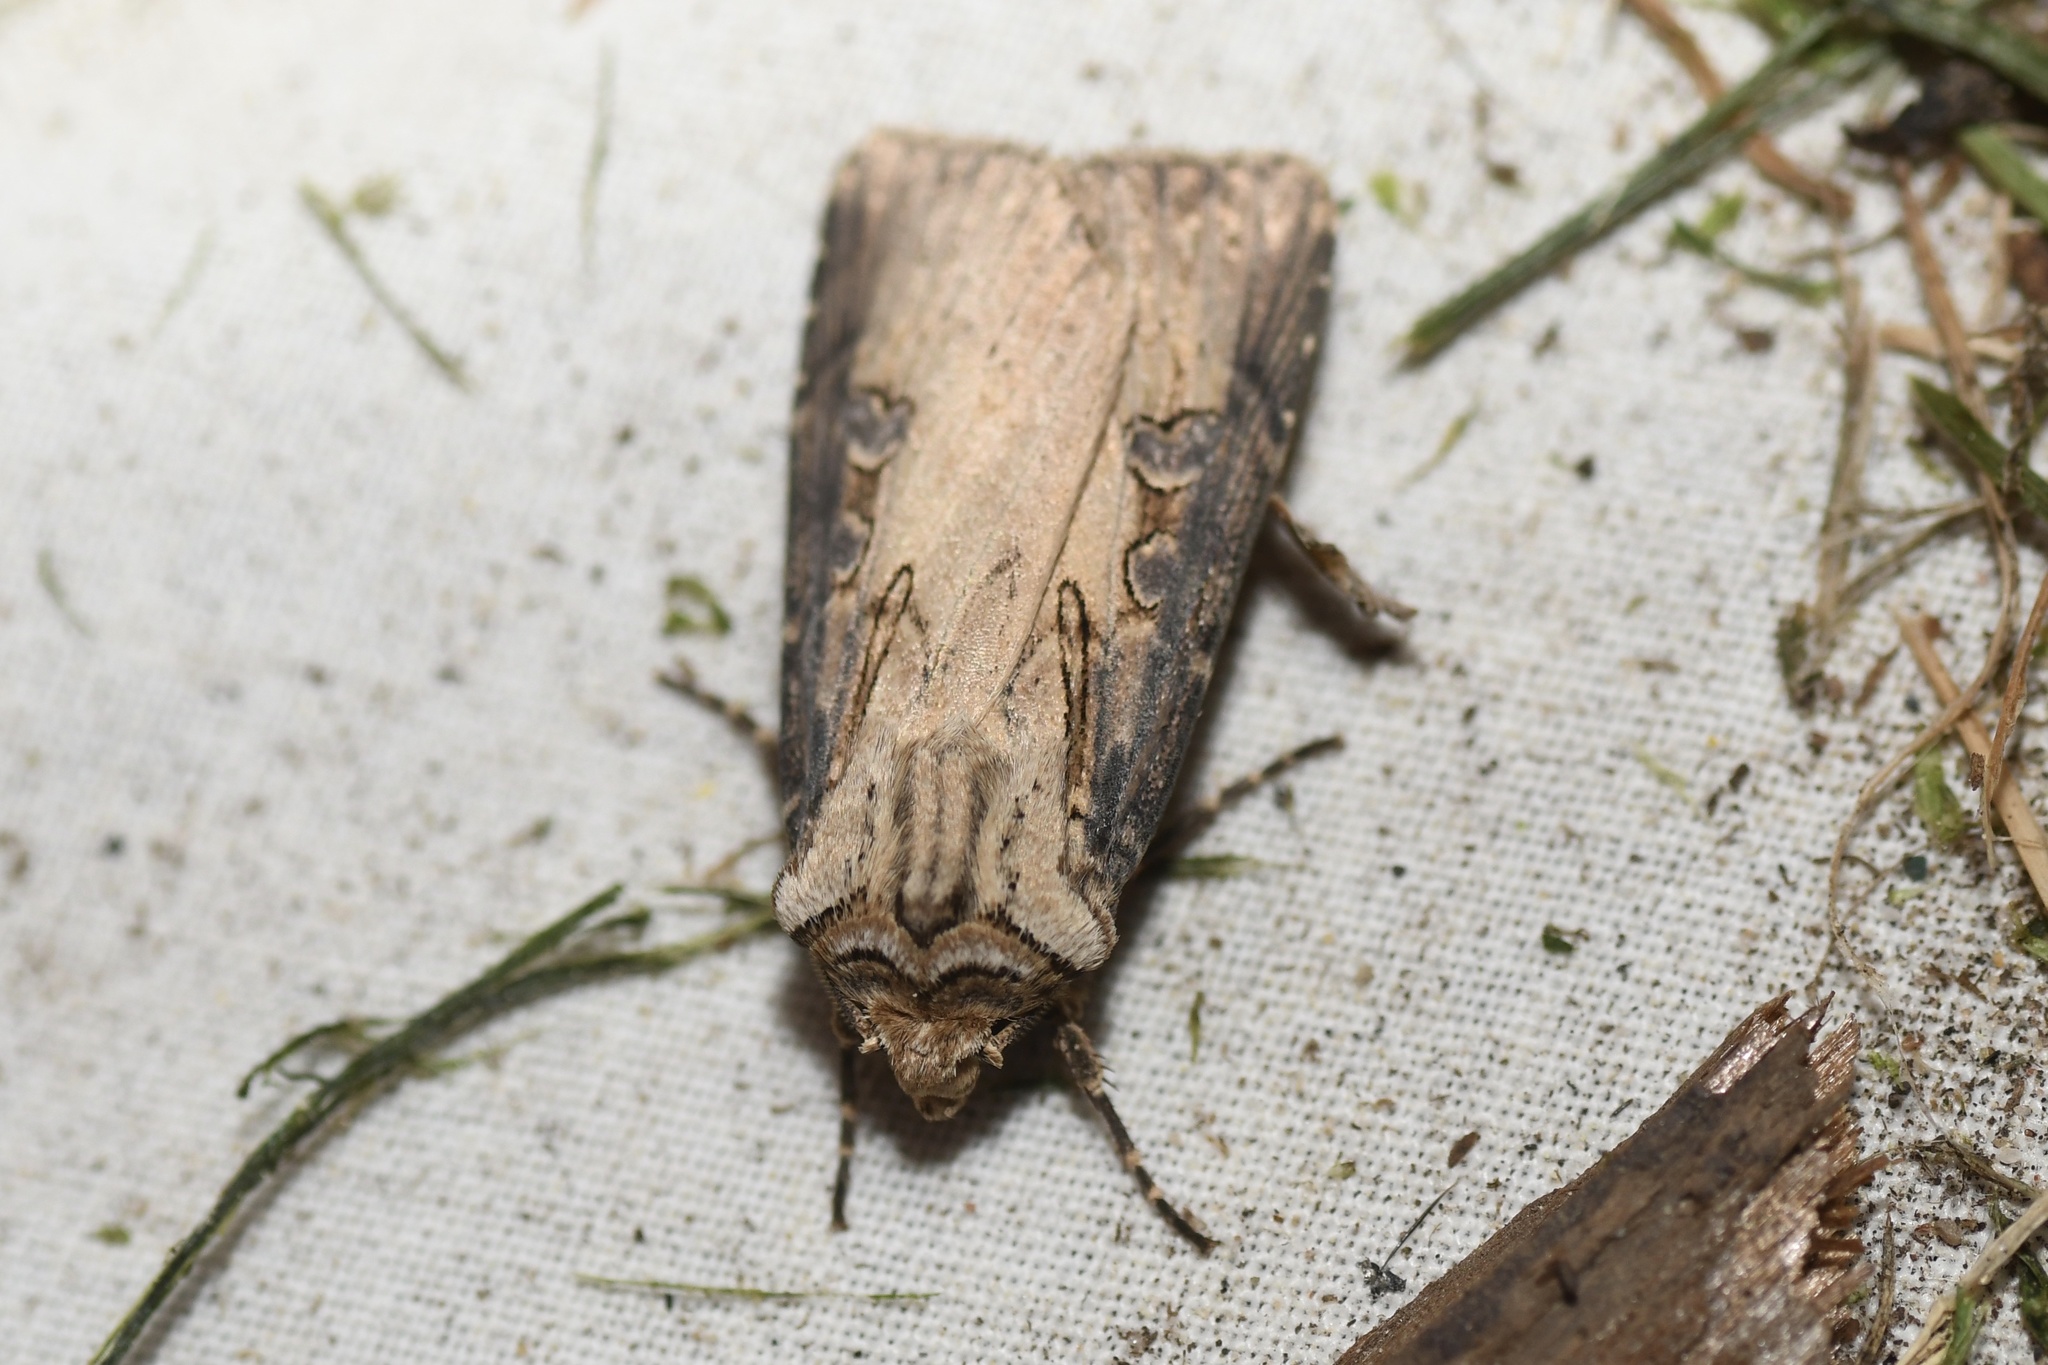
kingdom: Animalia
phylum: Arthropoda
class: Insecta
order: Lepidoptera
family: Noctuidae
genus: Agrotis
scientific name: Agrotis stigmosa
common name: Spotted dart
